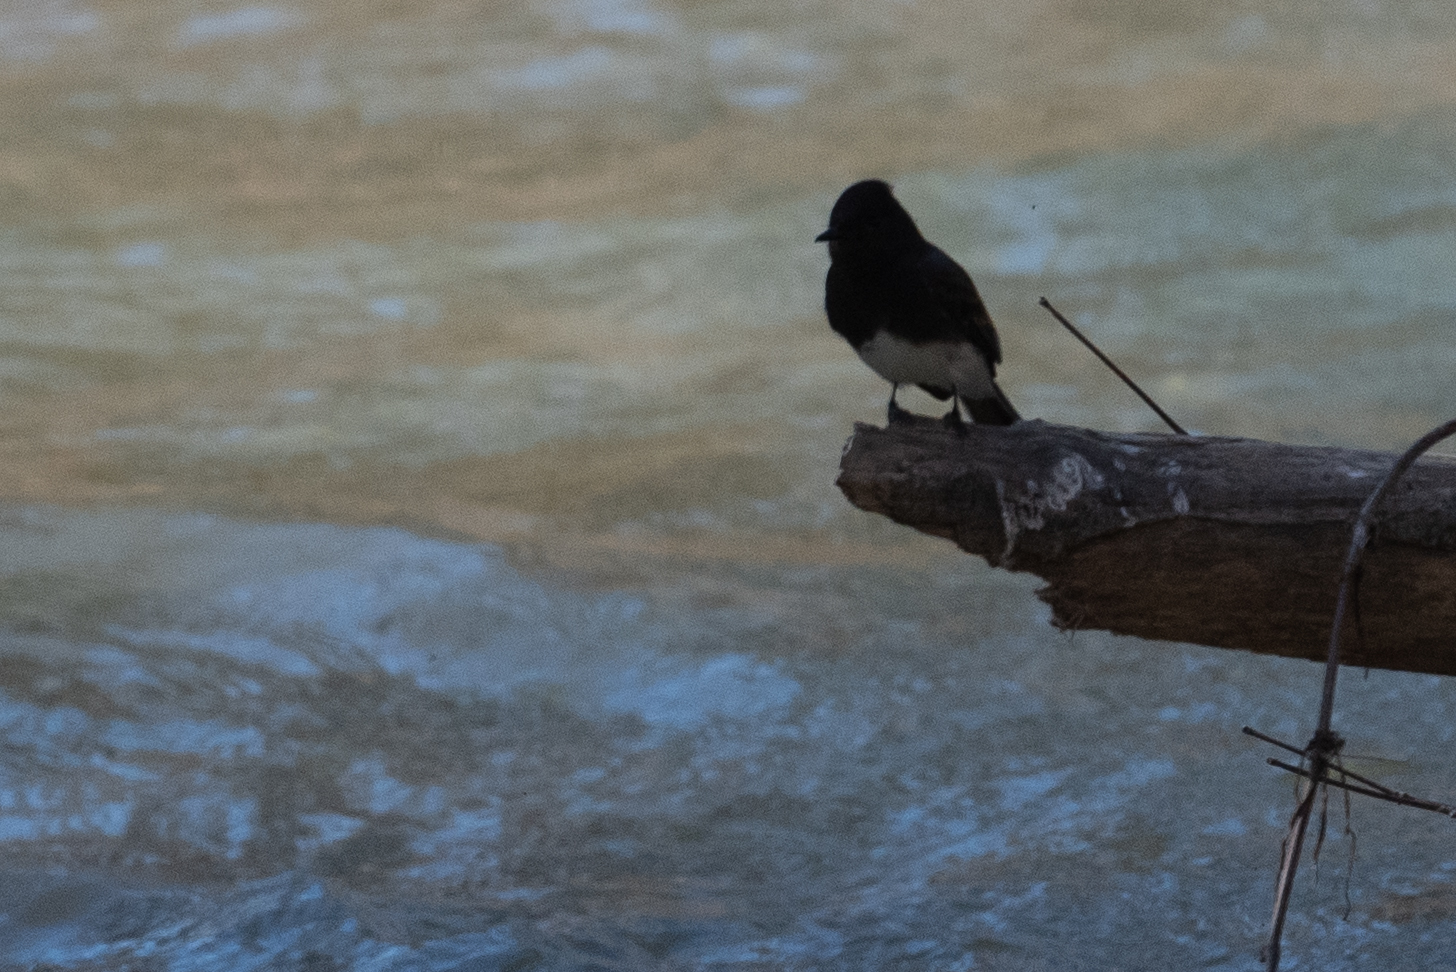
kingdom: Animalia
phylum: Chordata
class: Aves
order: Passeriformes
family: Tyrannidae
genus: Sayornis
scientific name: Sayornis nigricans
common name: Black phoebe
